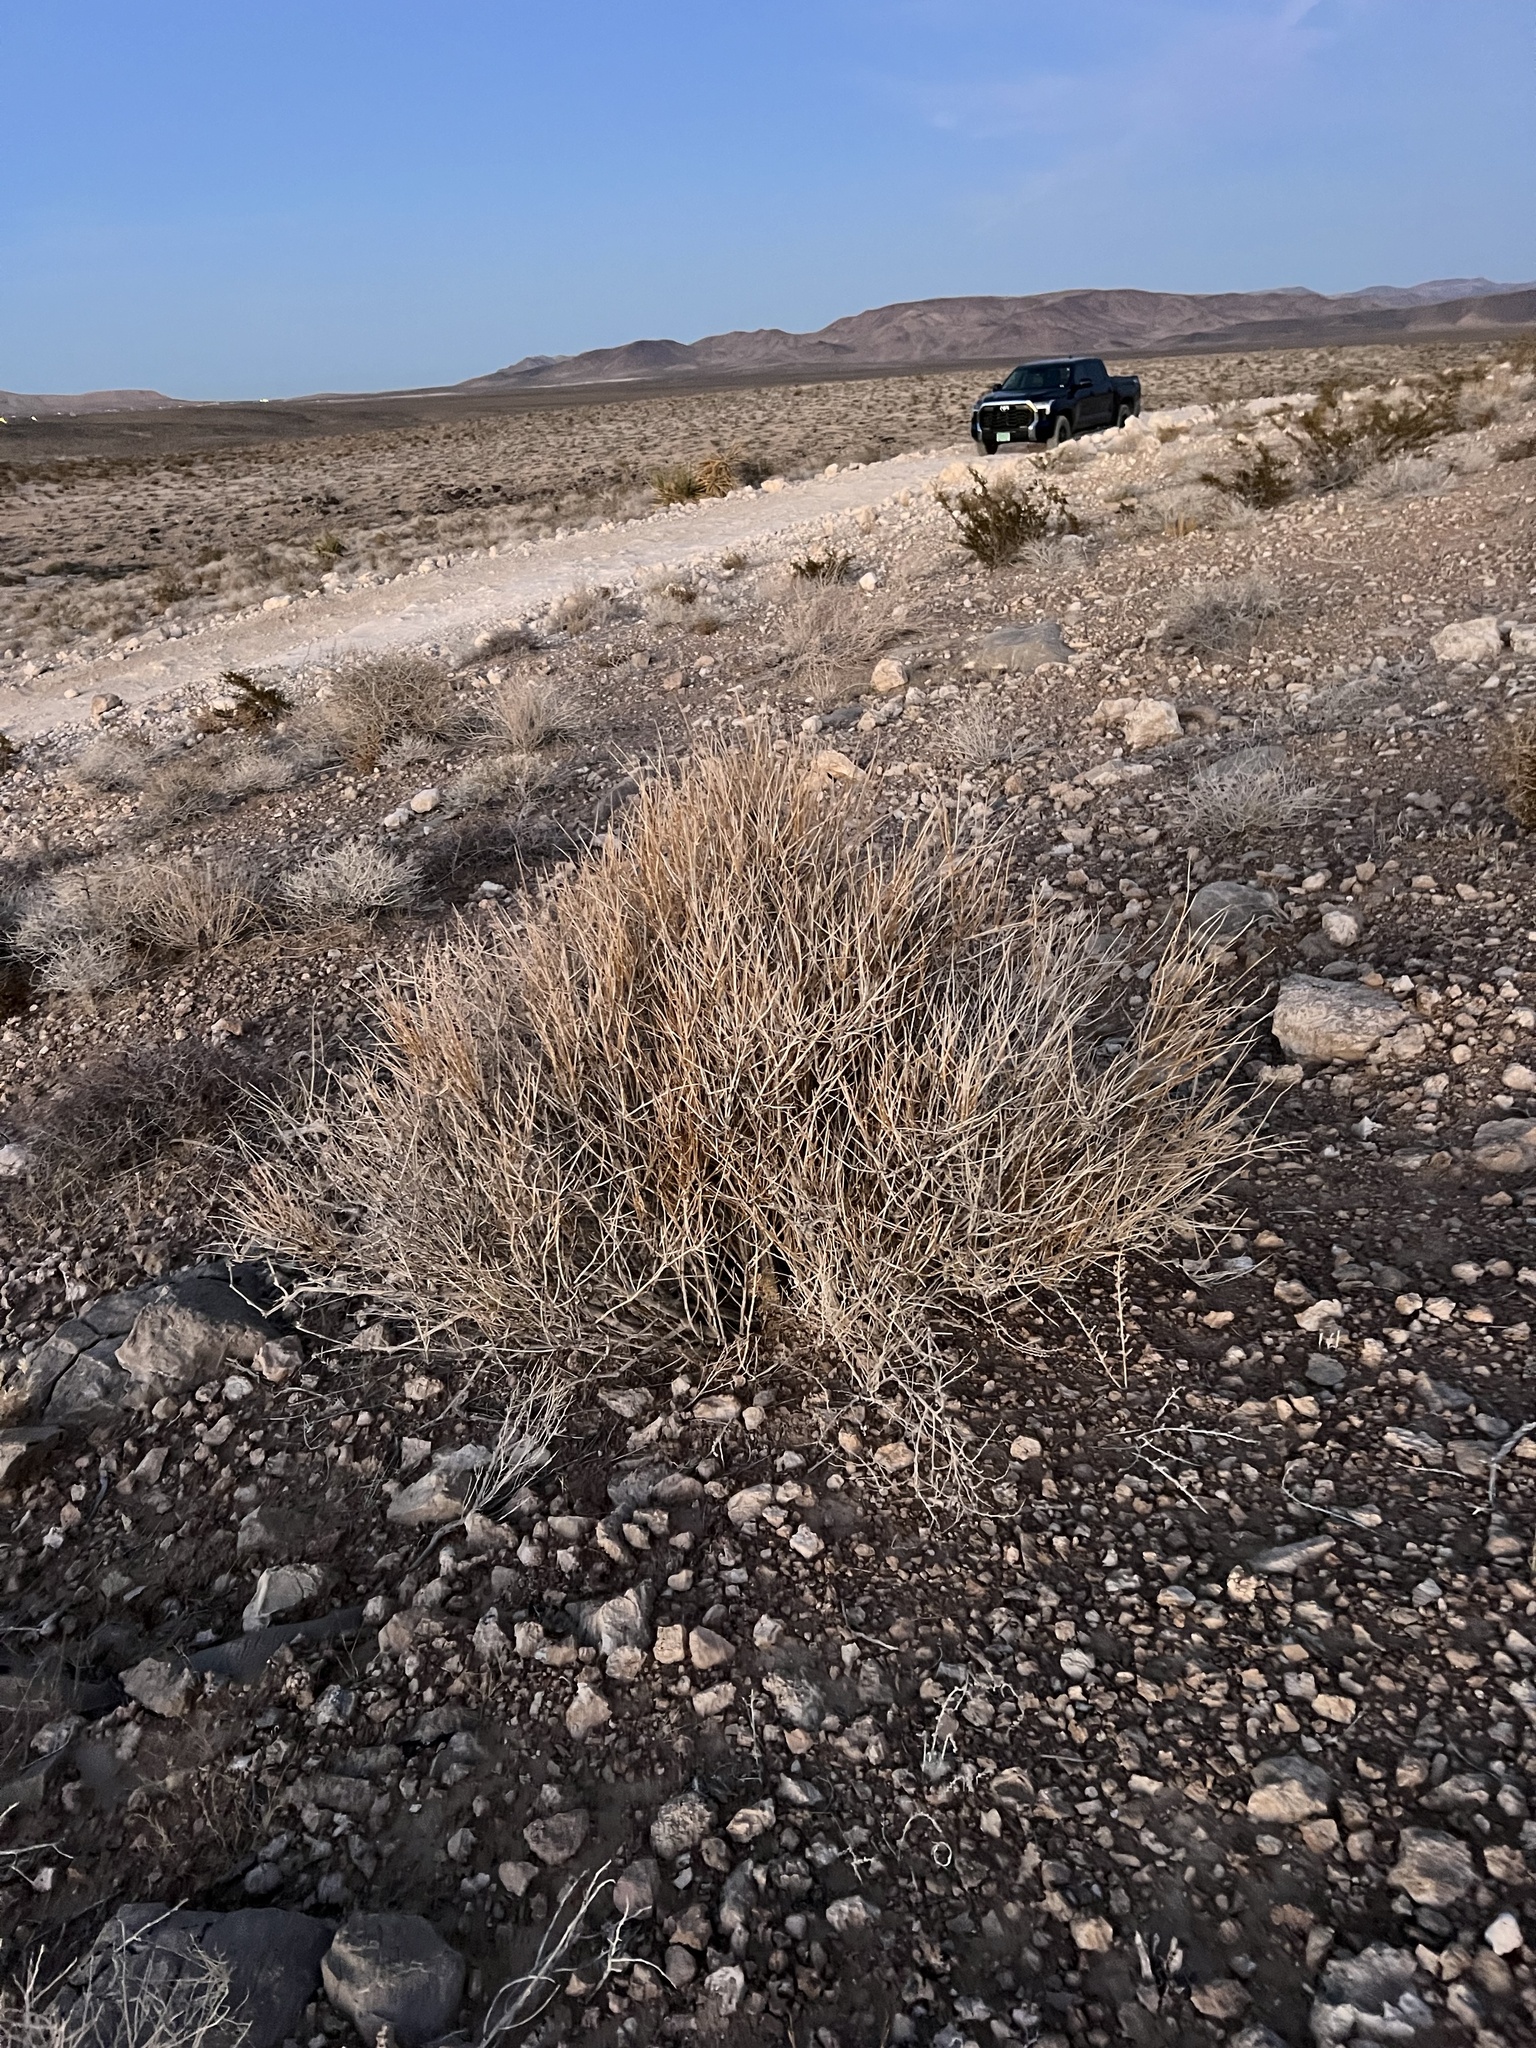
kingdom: Plantae
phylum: Tracheophyta
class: Gnetopsida
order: Ephedrales
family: Ephedraceae
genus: Ephedra
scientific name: Ephedra nevadensis
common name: Gray ephedra
